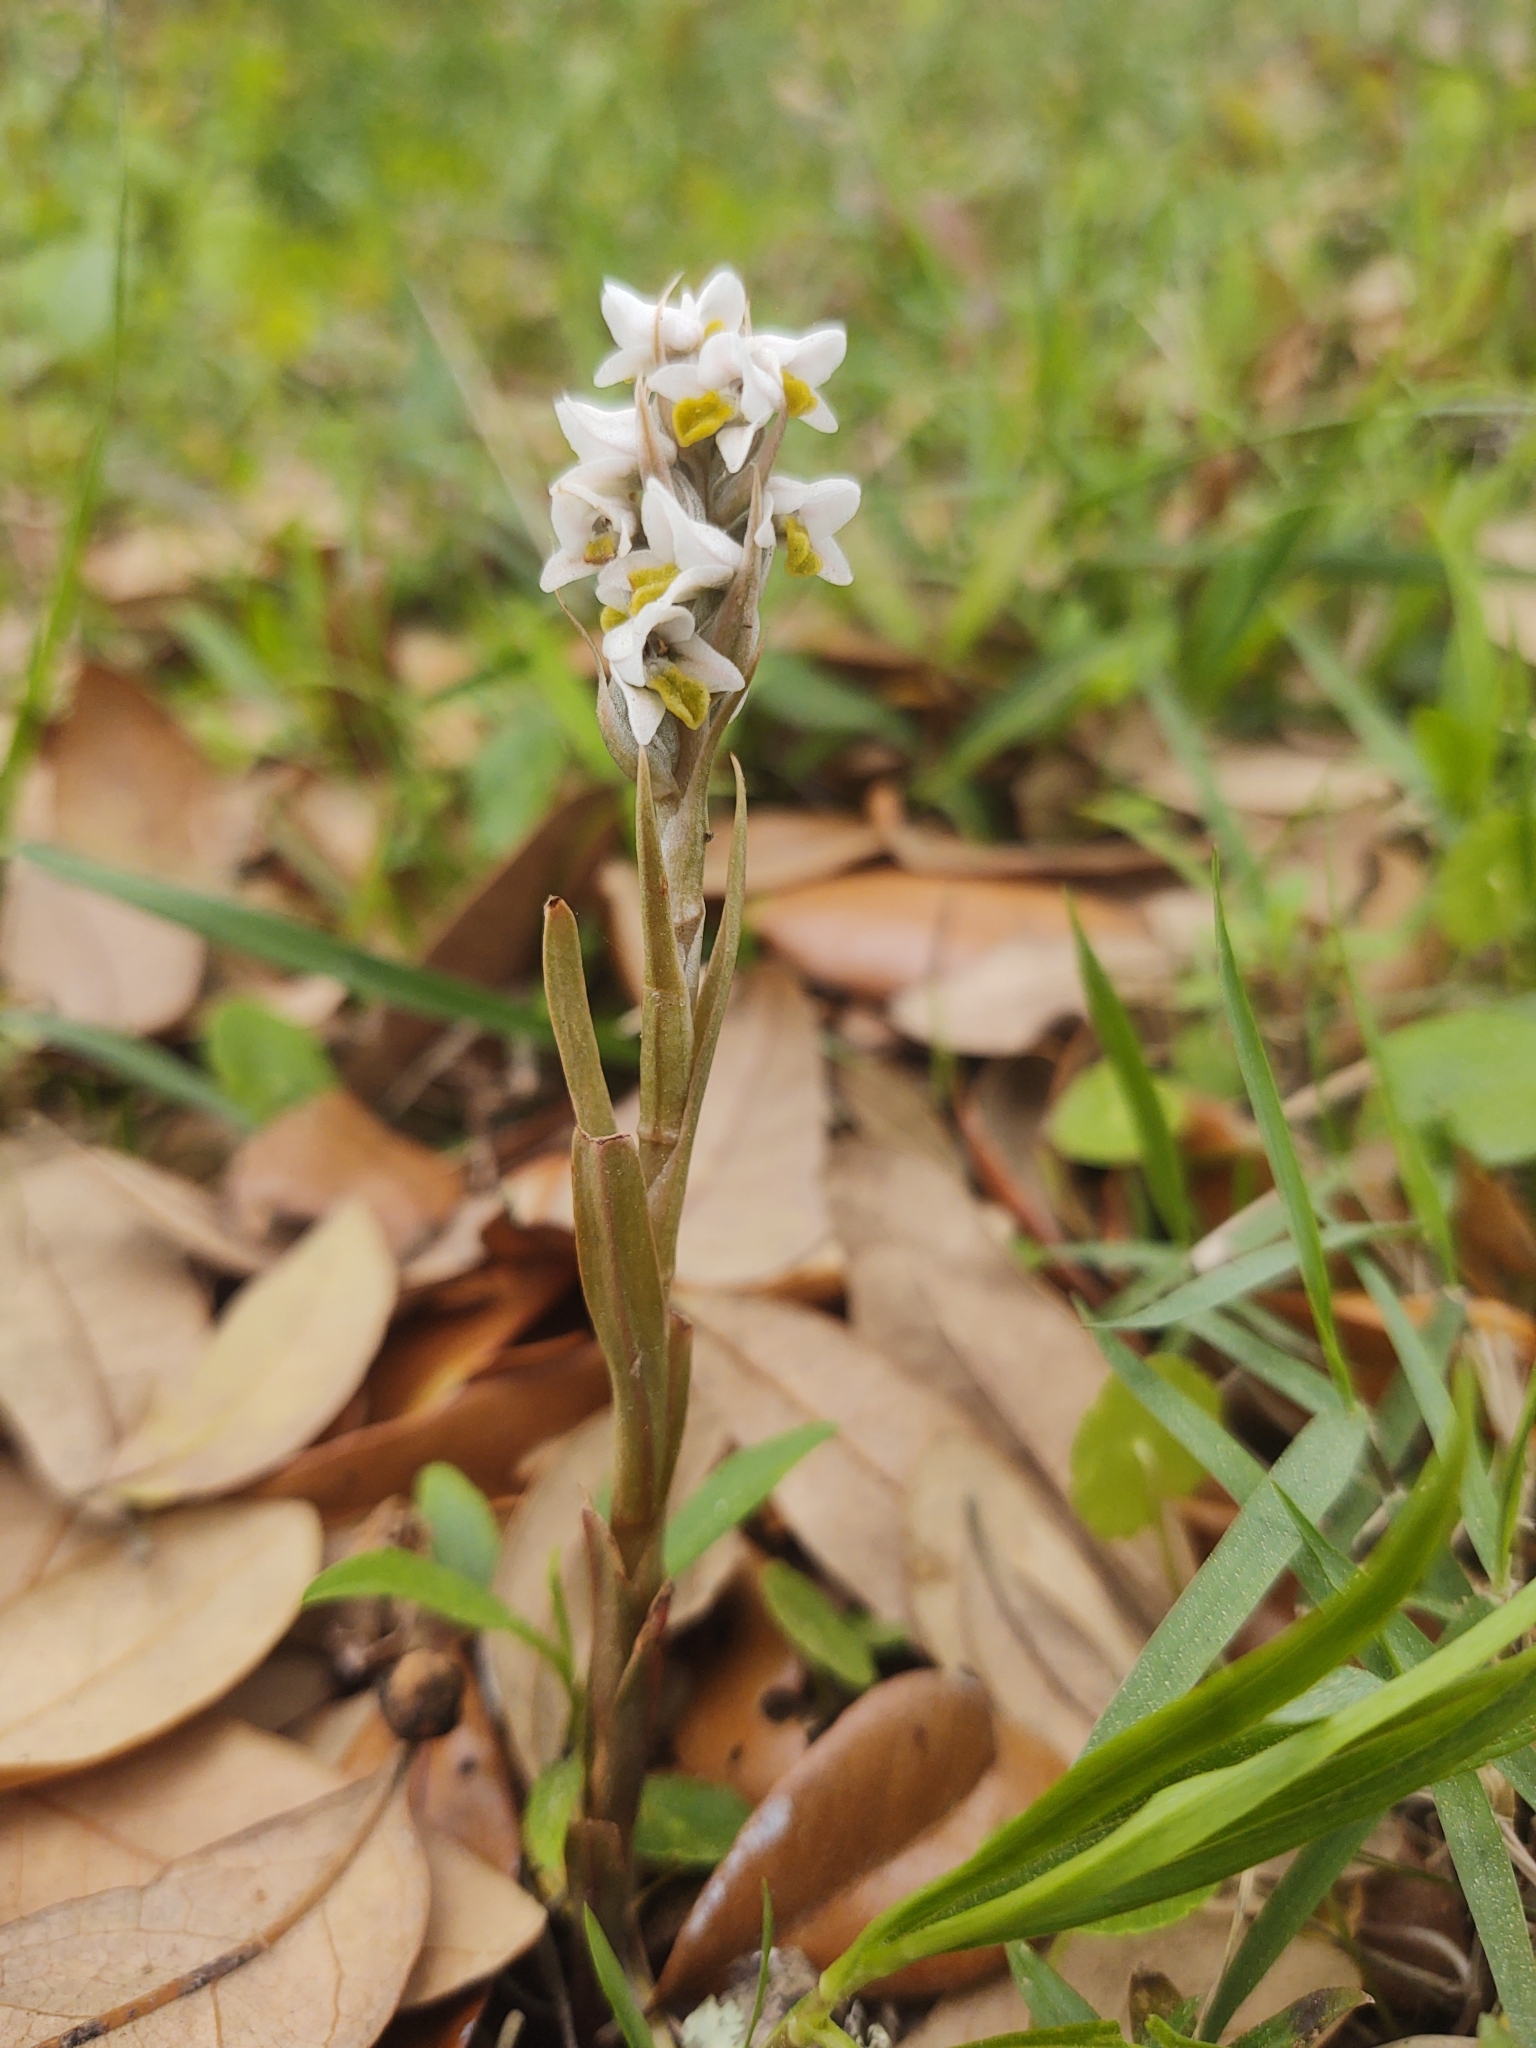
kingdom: Plantae
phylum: Tracheophyta
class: Liliopsida
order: Asparagales
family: Orchidaceae
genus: Zeuxine
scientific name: Zeuxine strateumatica
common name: Soldier's orchid
